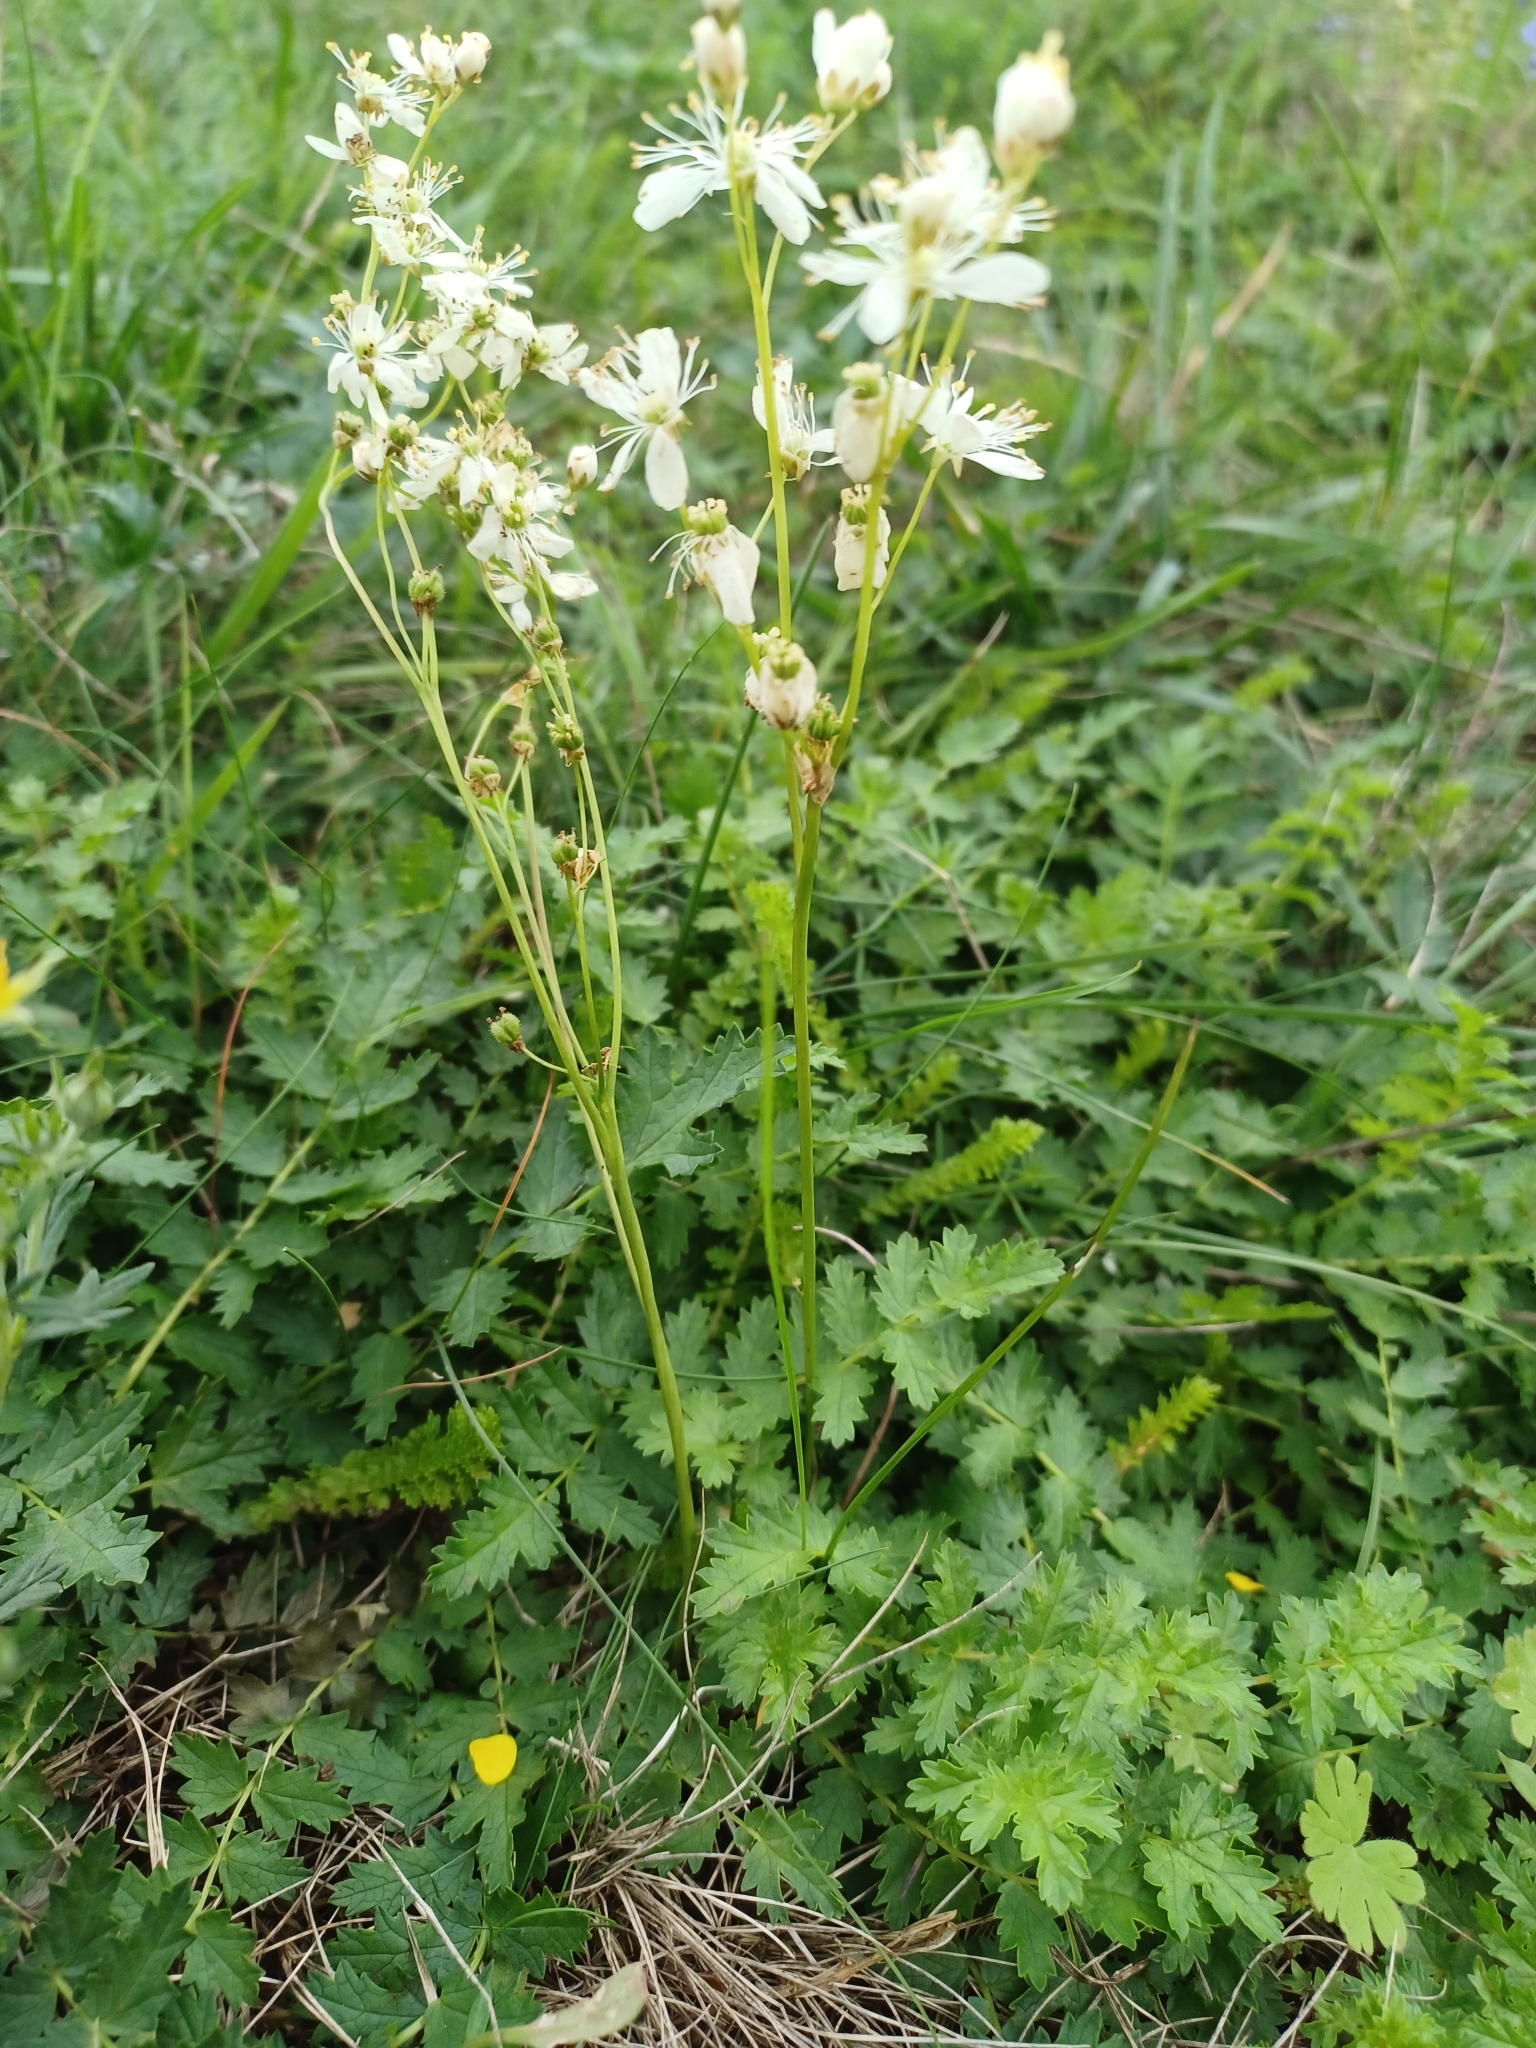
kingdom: Plantae
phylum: Tracheophyta
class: Magnoliopsida
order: Rosales
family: Rosaceae
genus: Filipendula
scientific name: Filipendula vulgaris
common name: Dropwort
